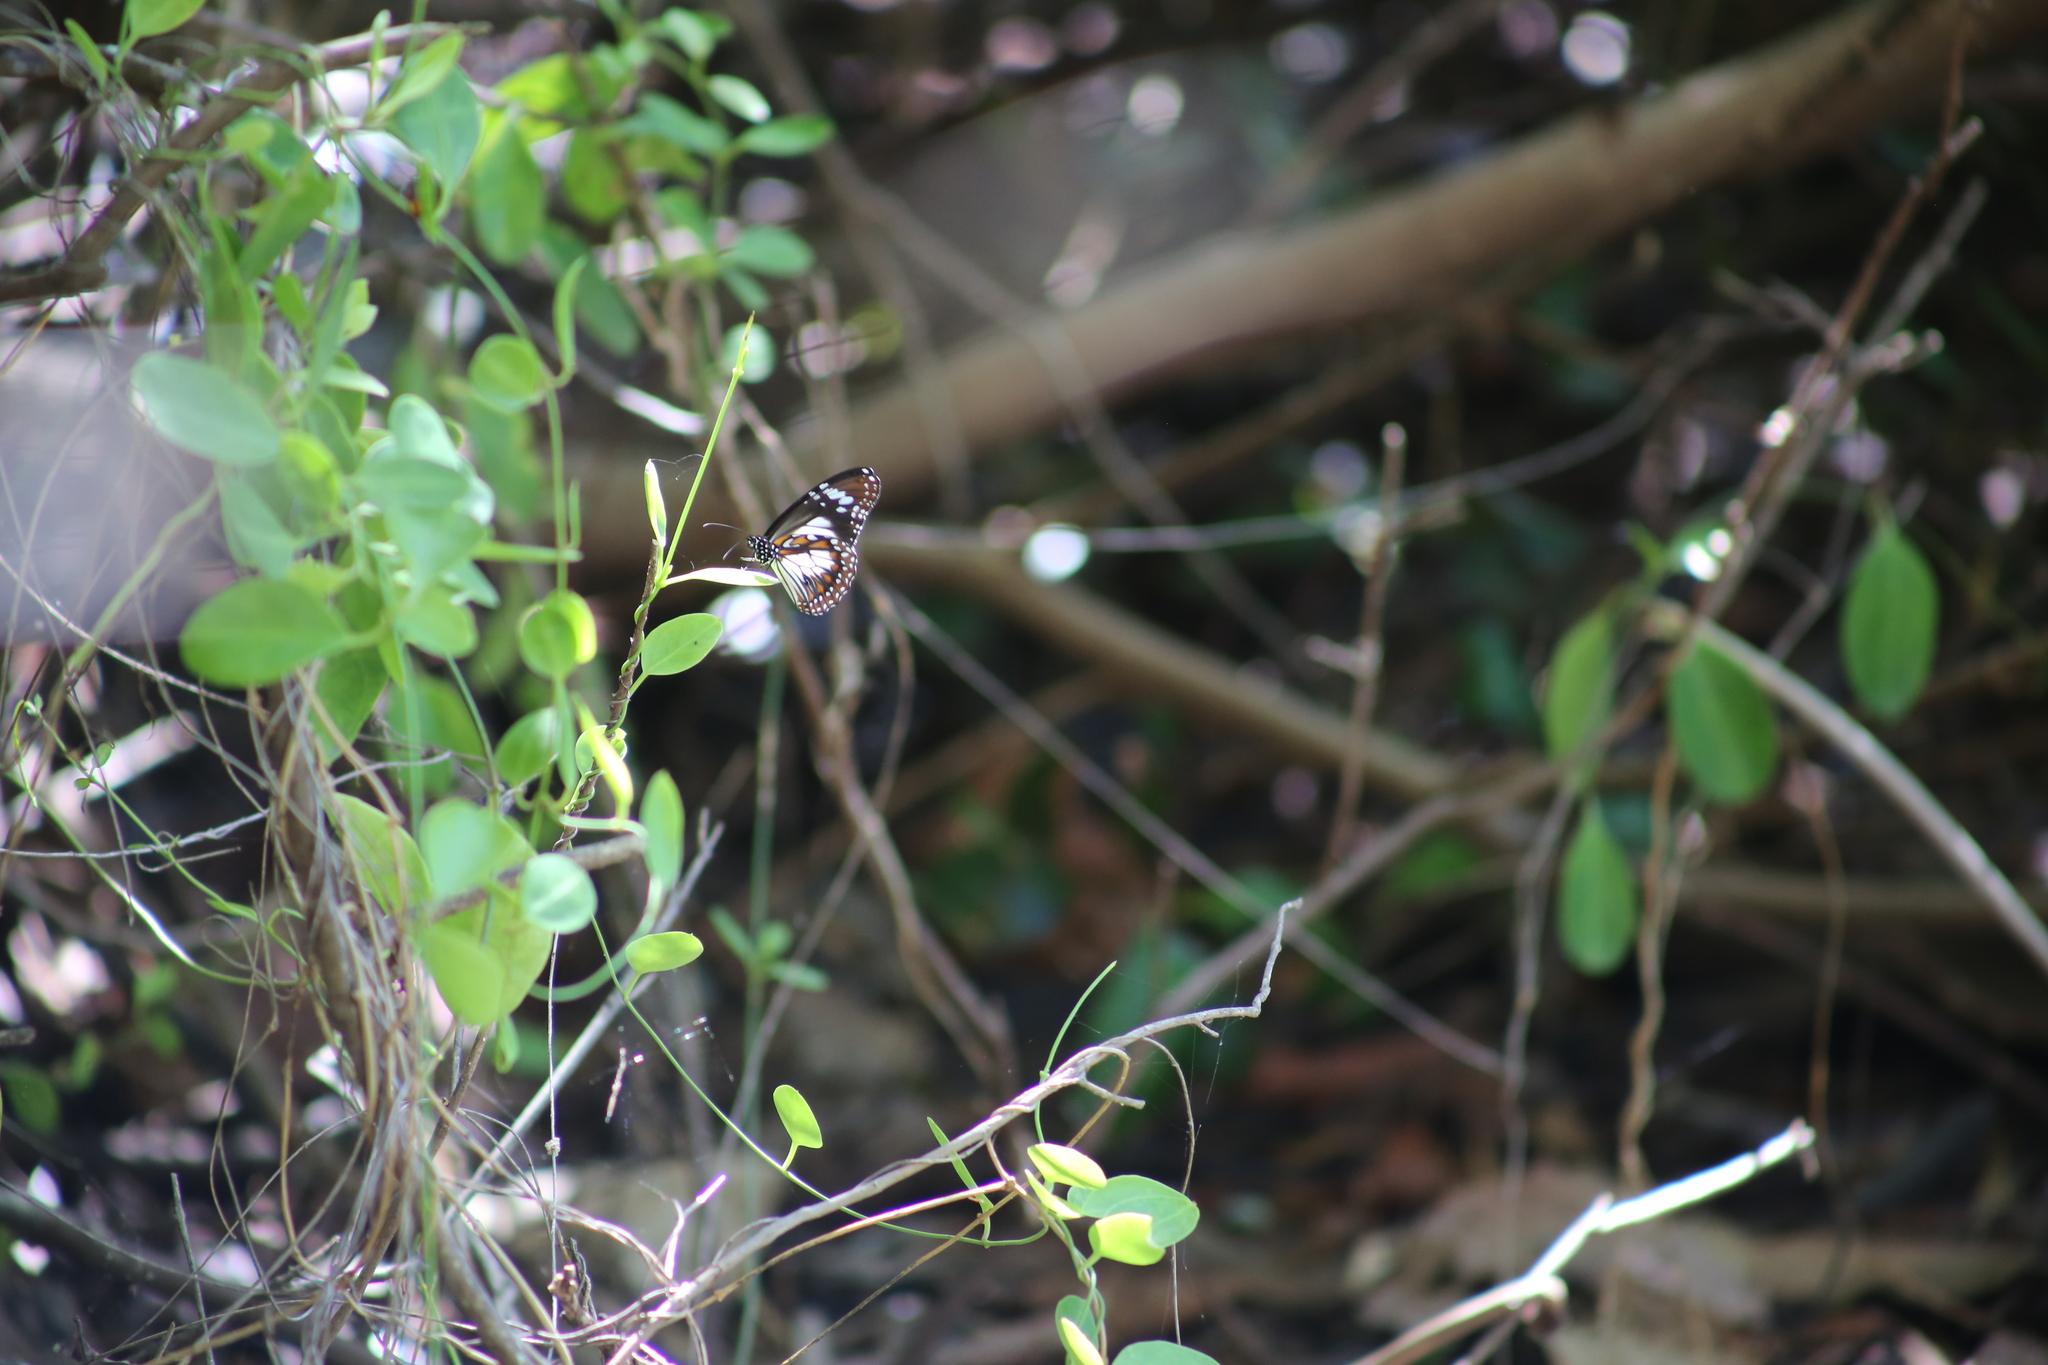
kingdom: Animalia
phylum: Arthropoda
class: Insecta
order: Lepidoptera
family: Nymphalidae
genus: Danaus
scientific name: Danaus affinis
